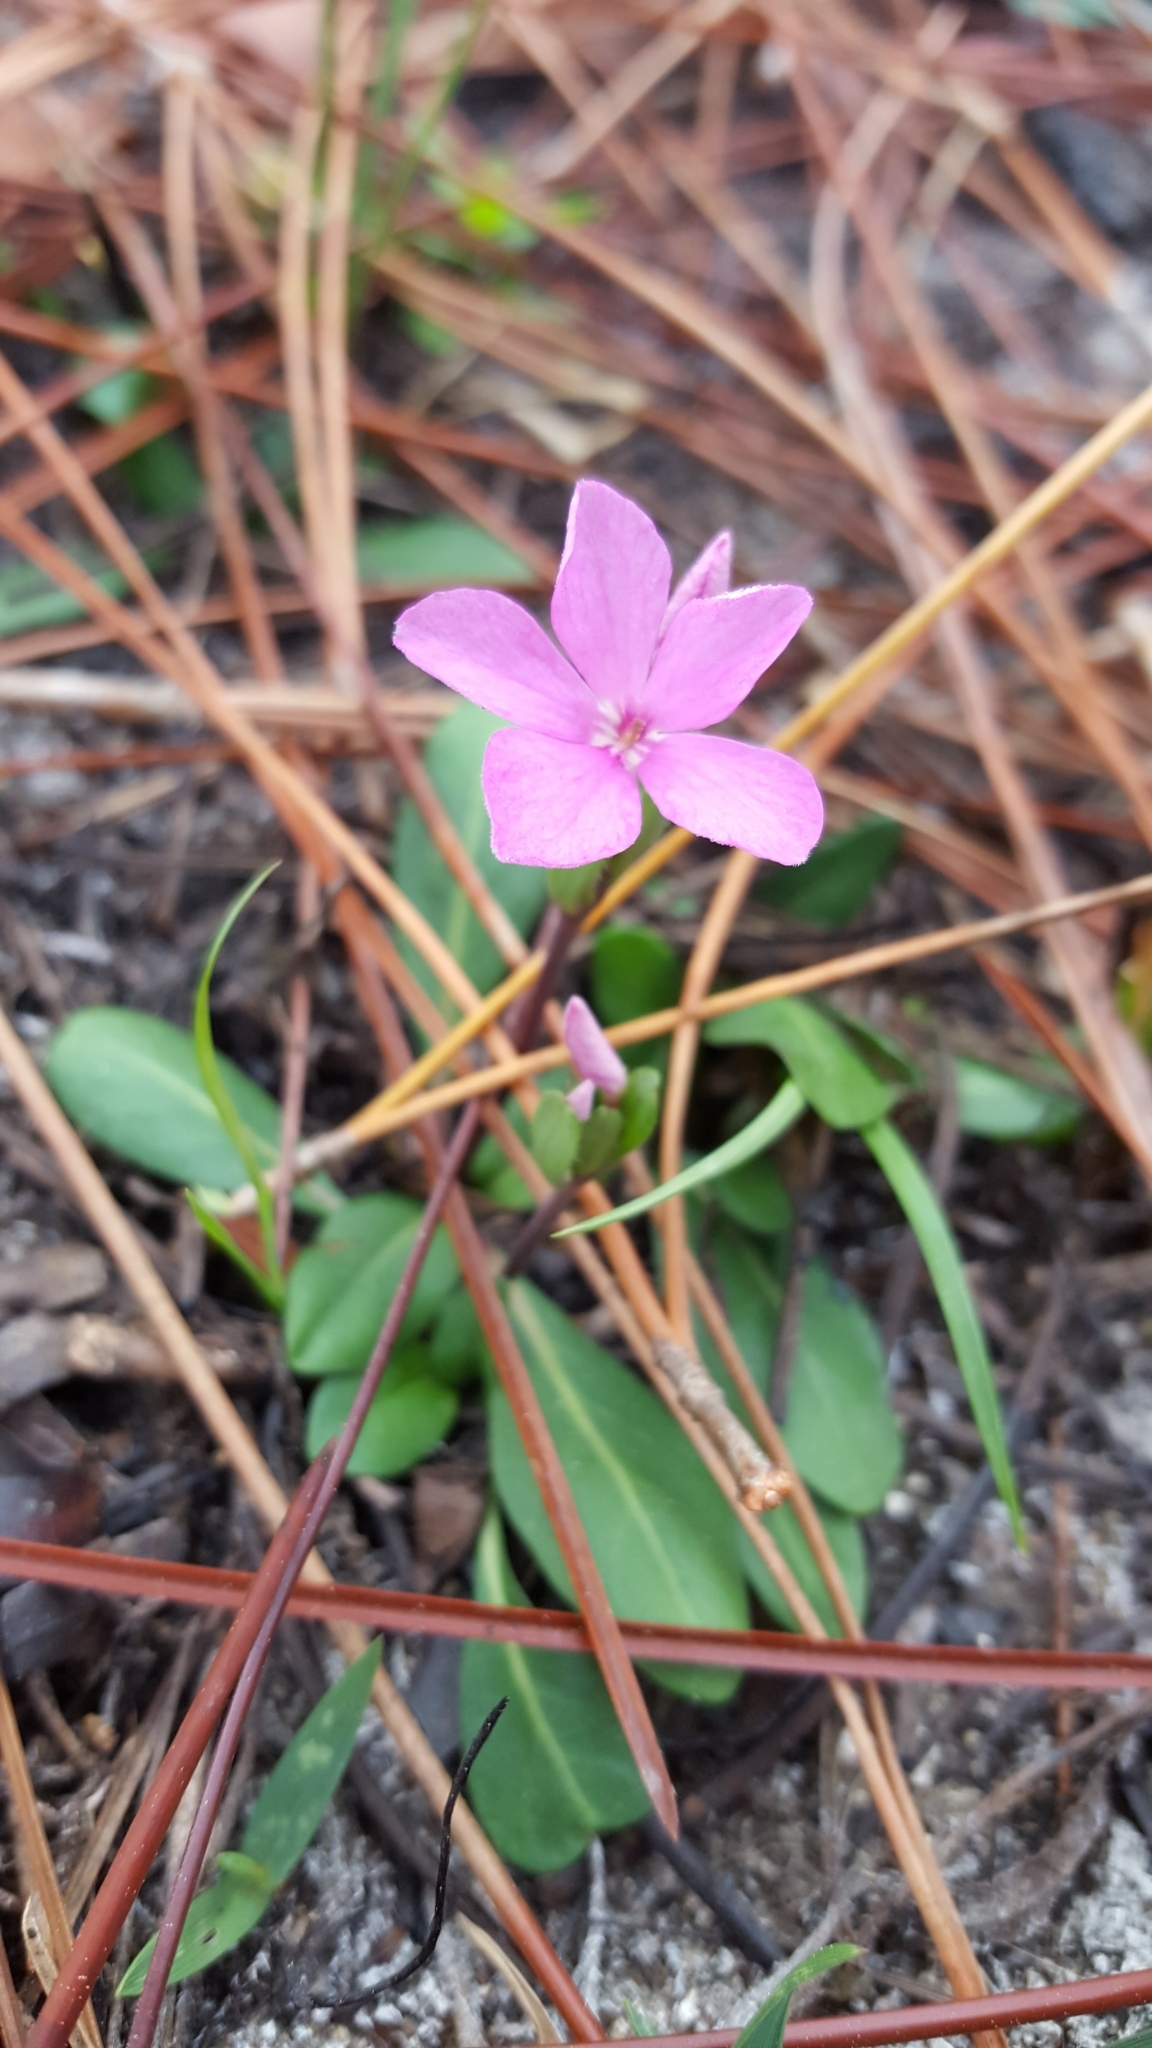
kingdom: Plantae
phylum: Tracheophyta
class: Magnoliopsida
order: Lamiales
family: Acanthaceae
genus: Stenandrium
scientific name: Stenandrium dulce
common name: Pinklet
